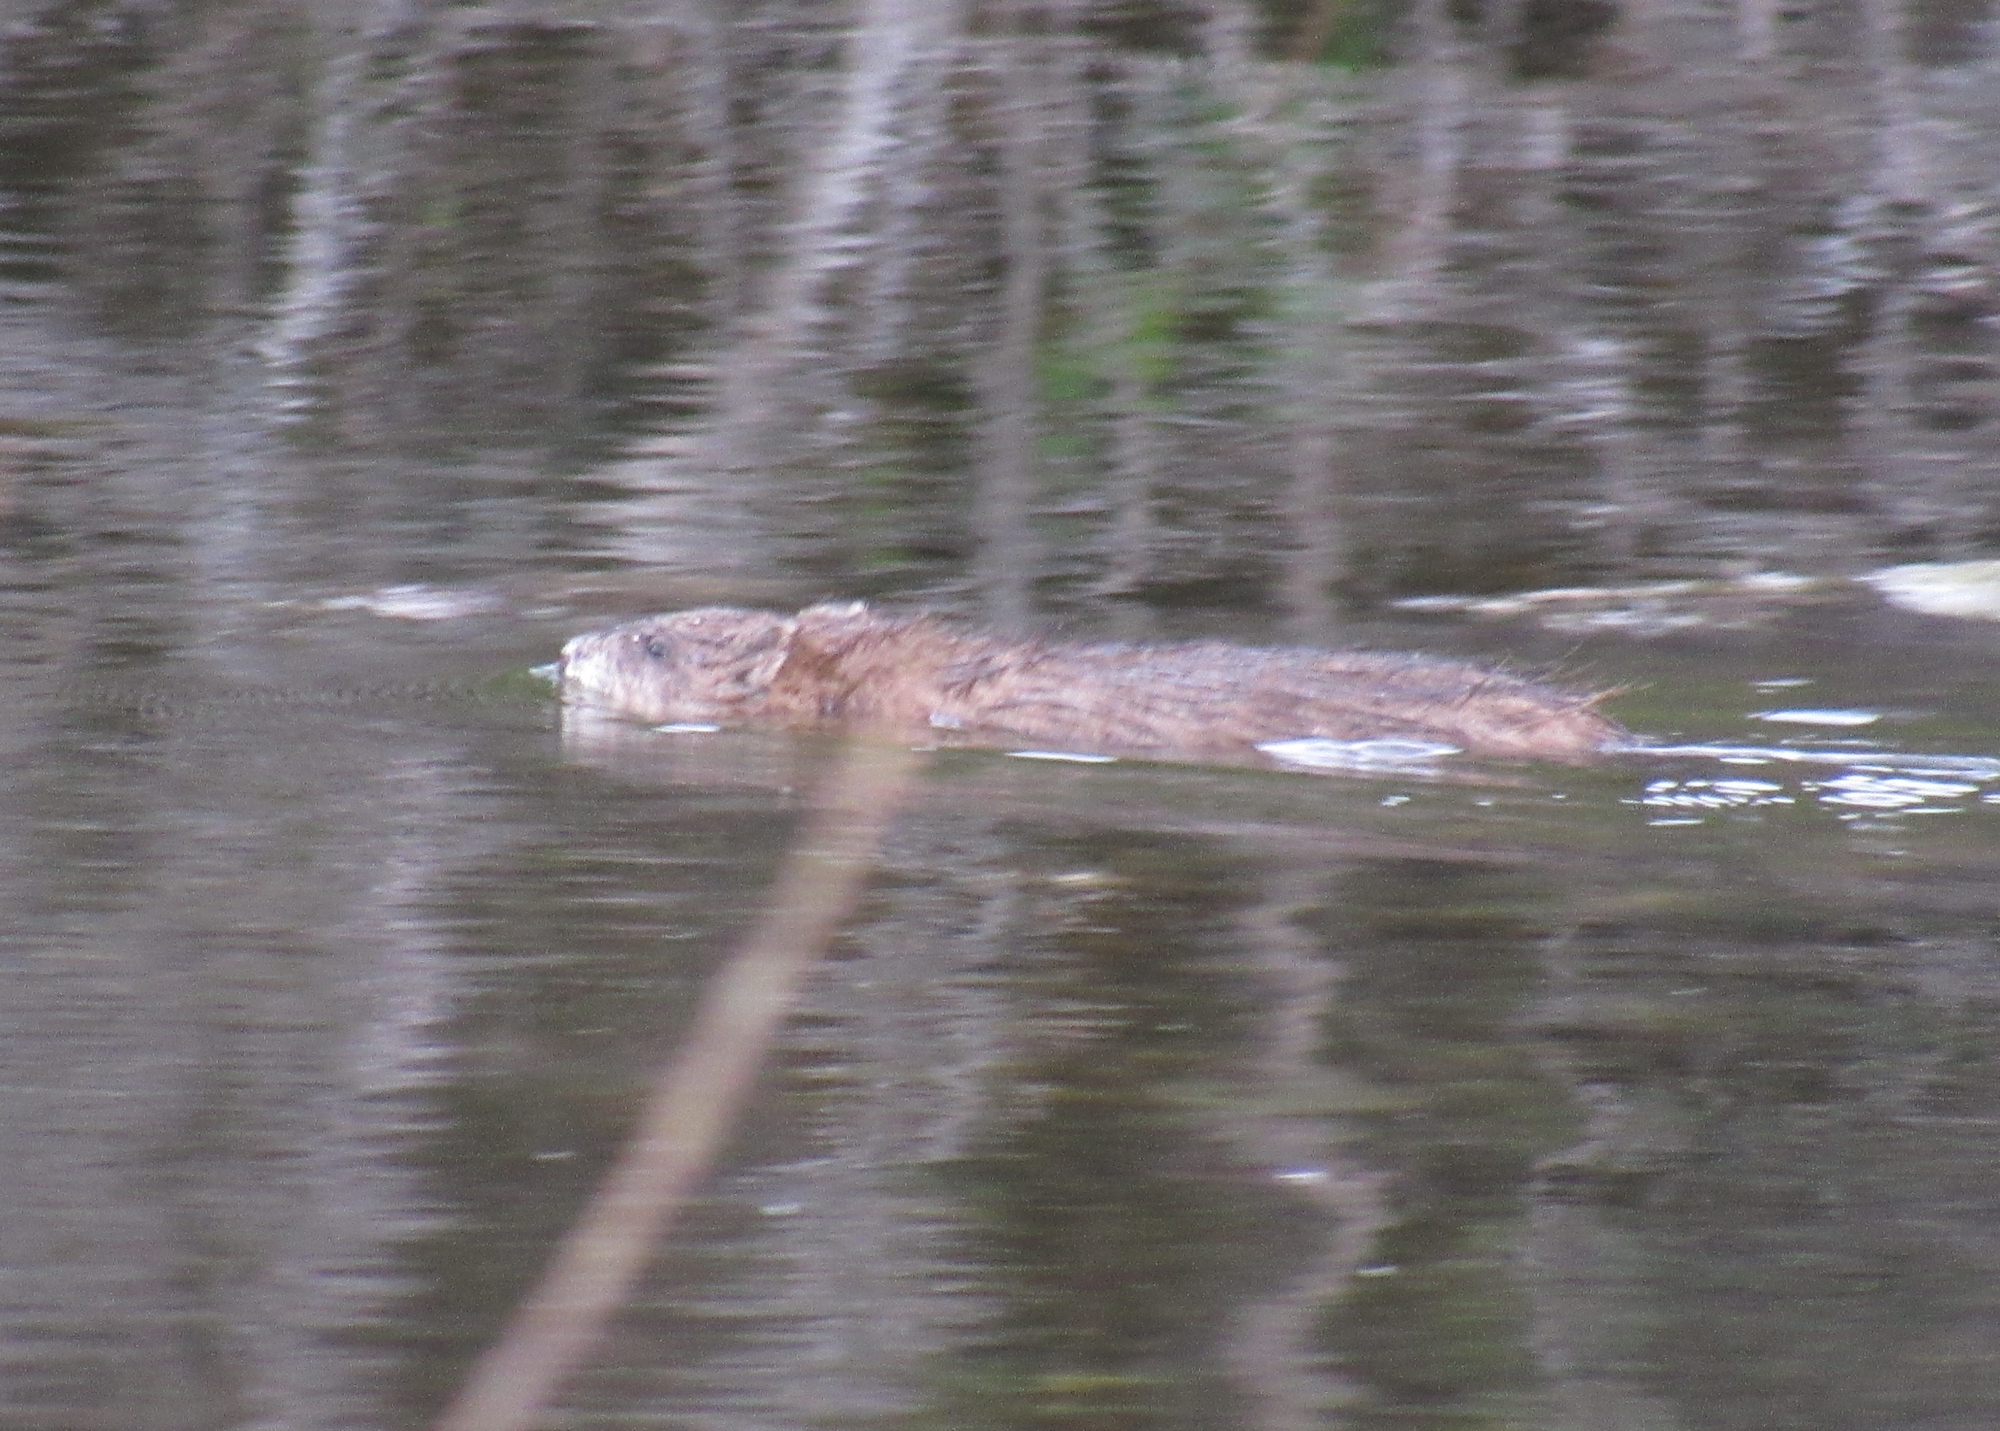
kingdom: Animalia
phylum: Chordata
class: Mammalia
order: Rodentia
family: Cricetidae
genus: Ondatra
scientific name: Ondatra zibethicus
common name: Muskrat
